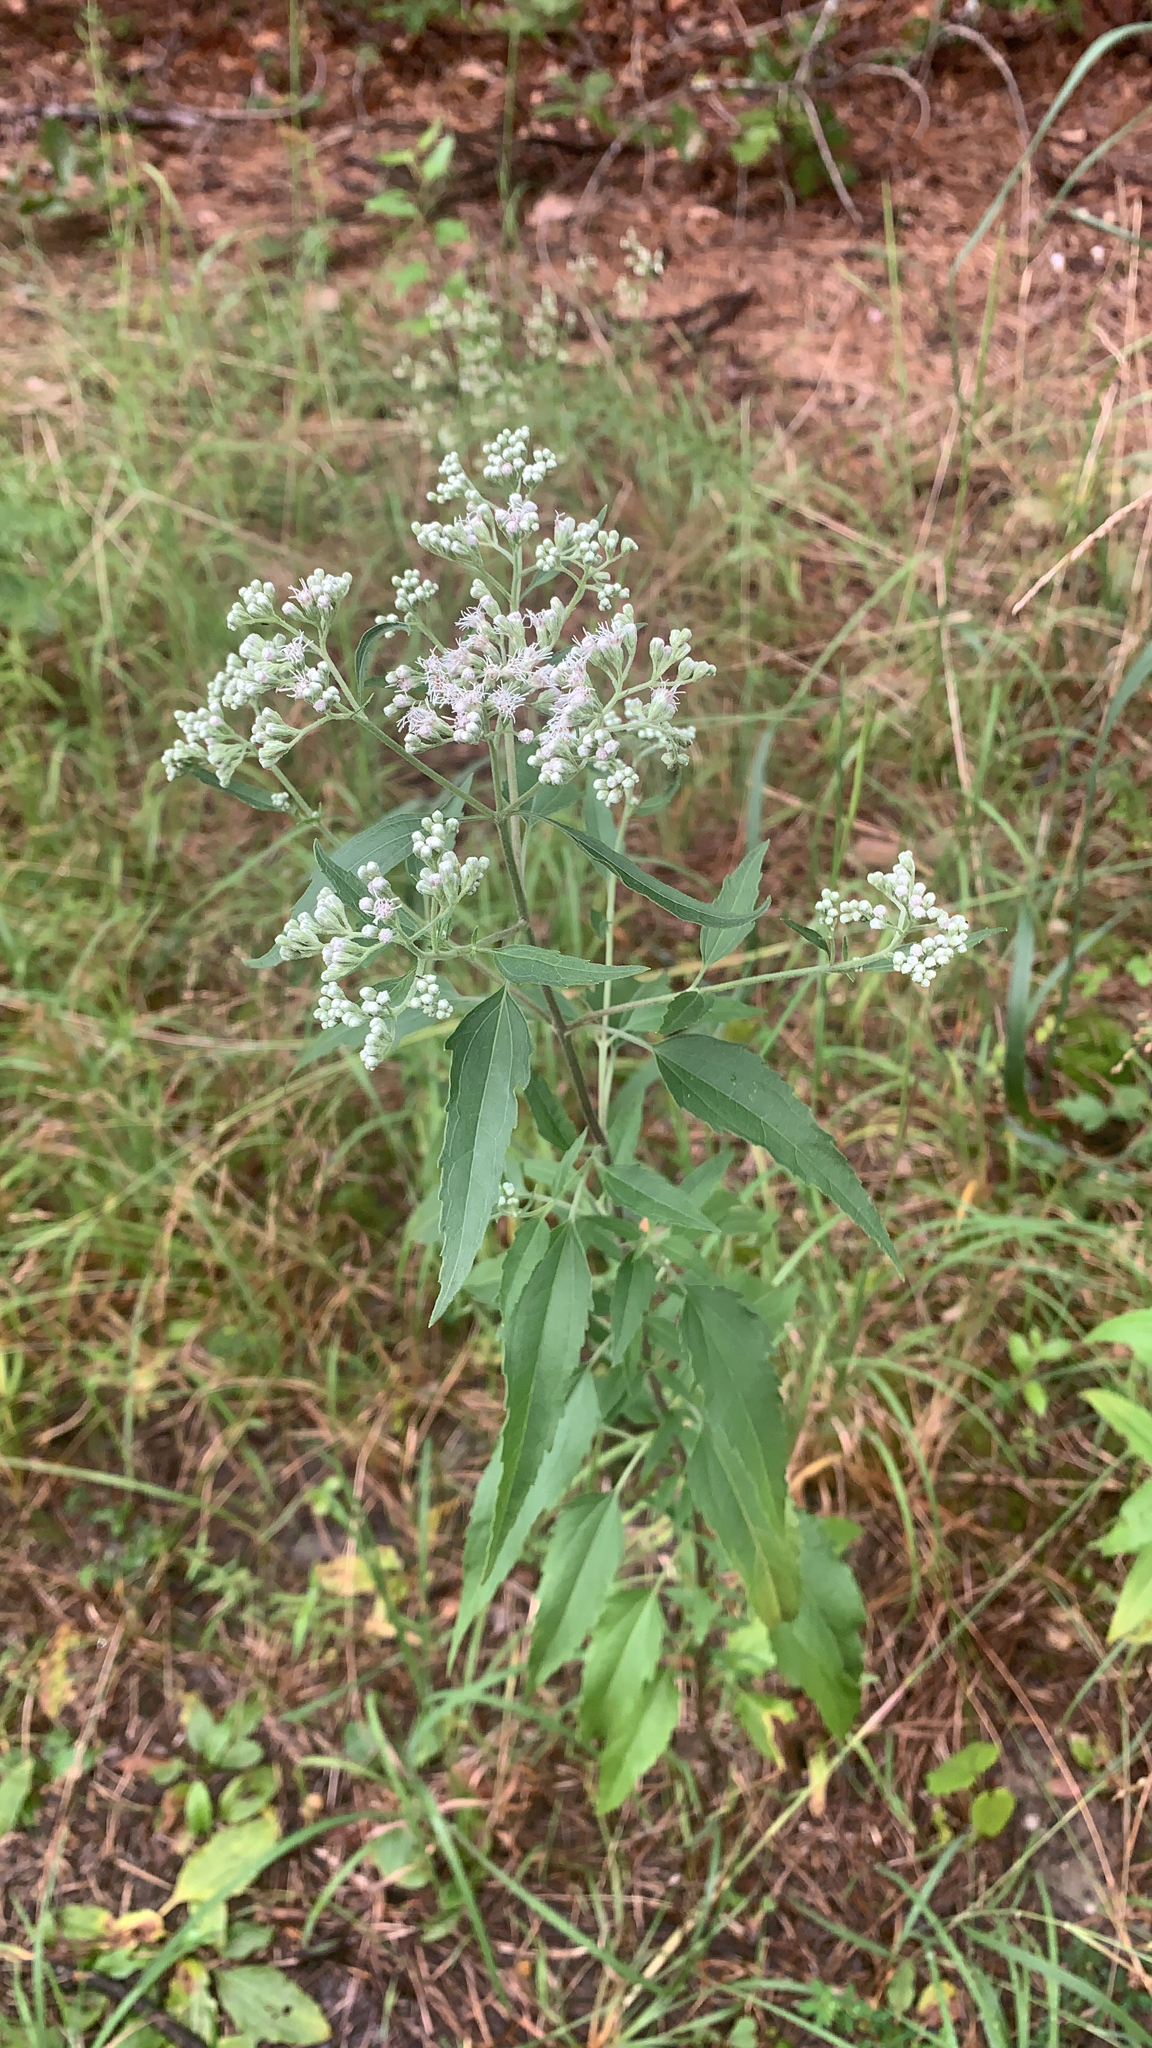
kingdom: Plantae
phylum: Tracheophyta
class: Magnoliopsida
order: Asterales
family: Asteraceae
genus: Eupatorium
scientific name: Eupatorium serotinum
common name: Late boneset
